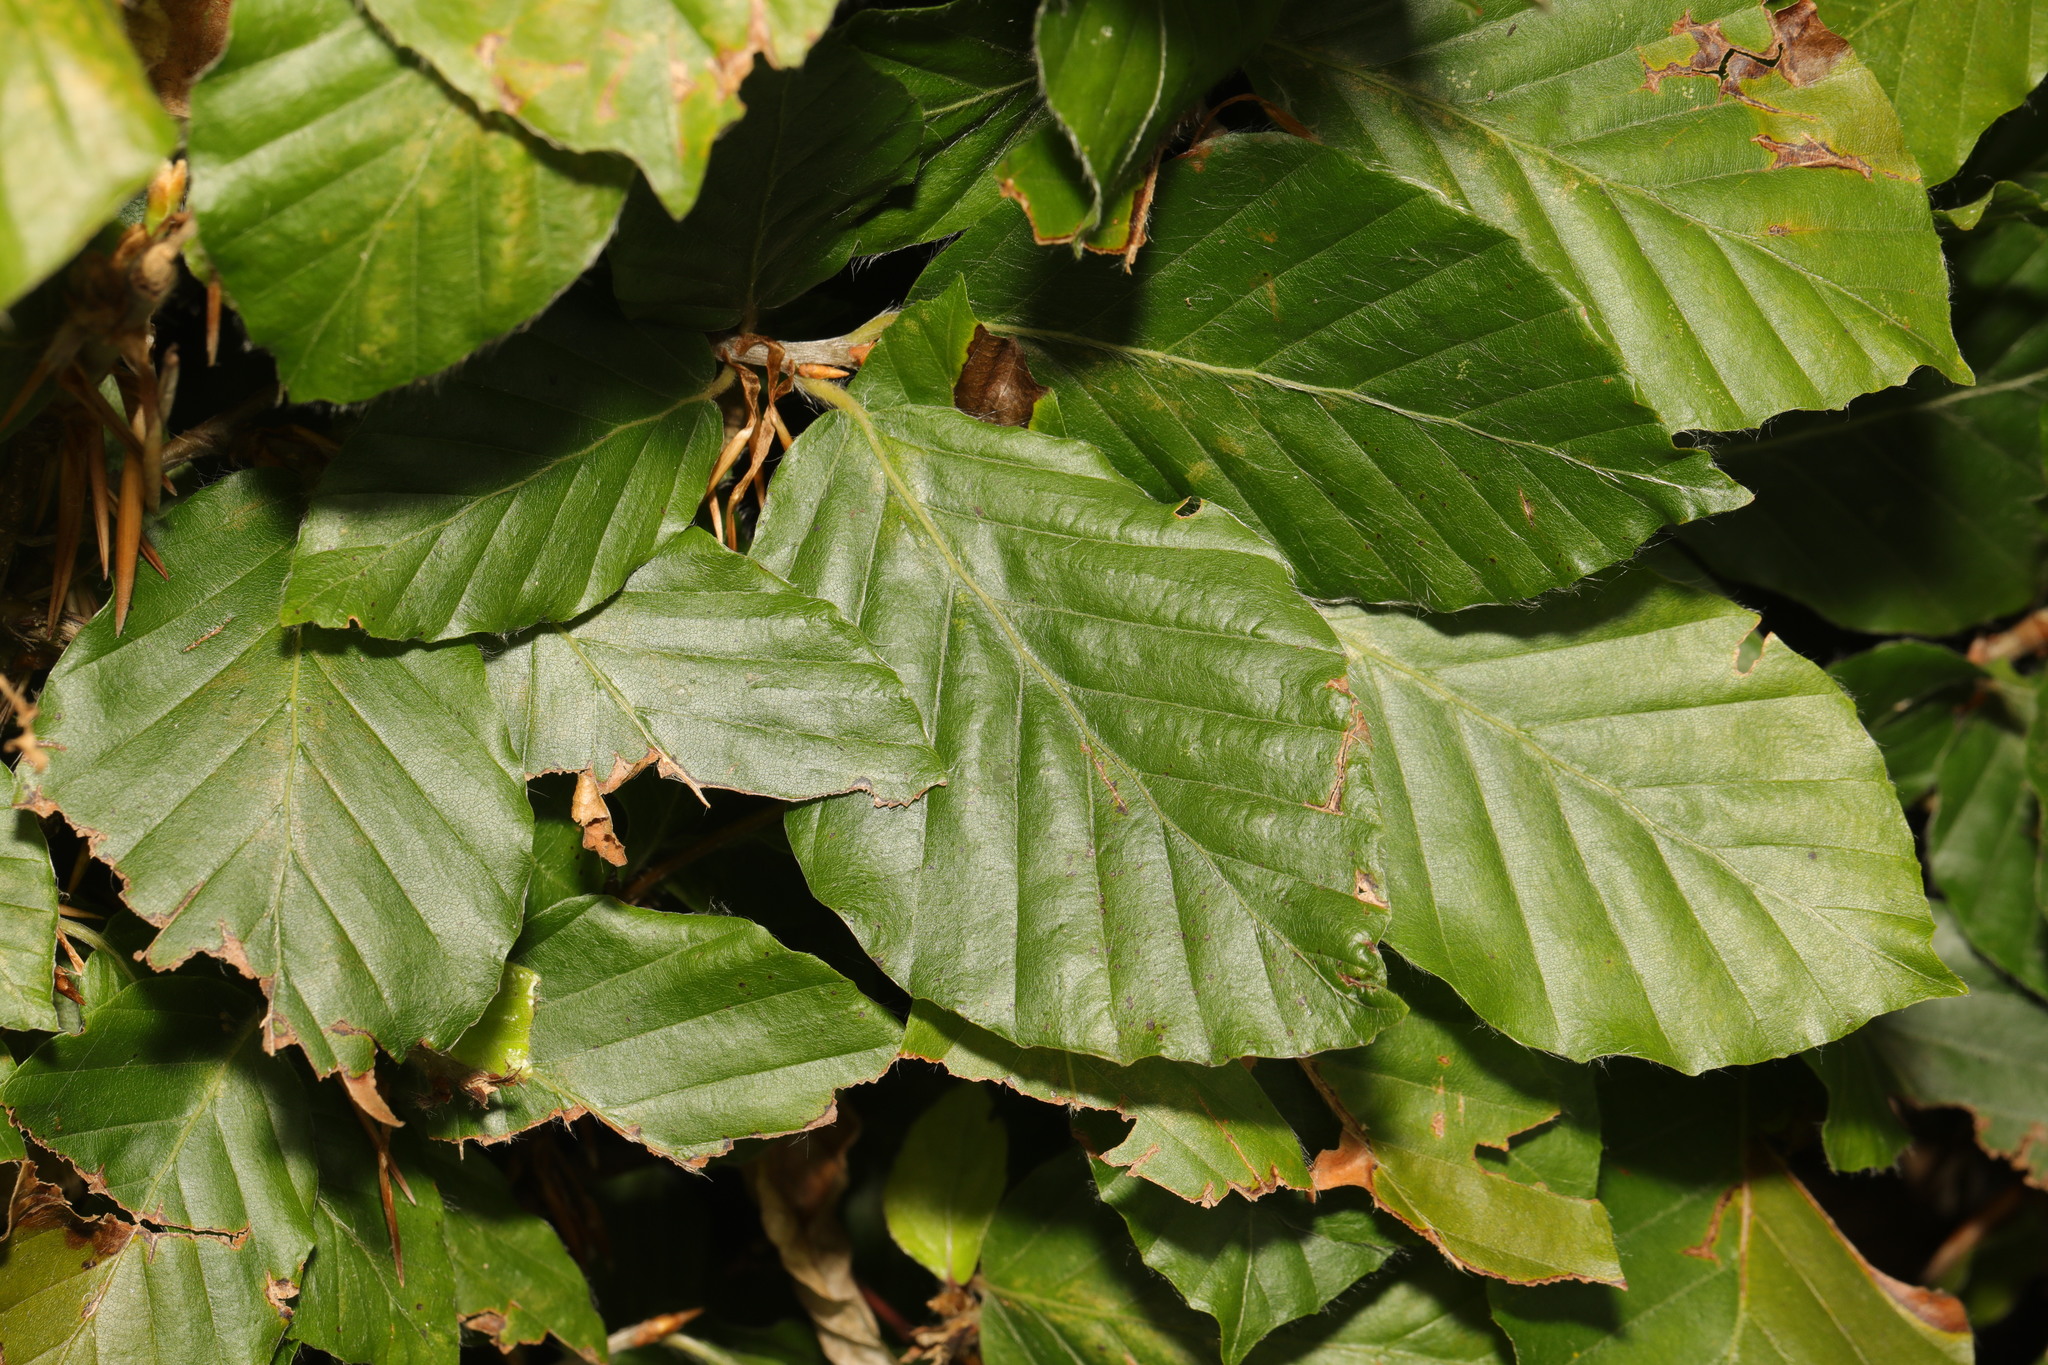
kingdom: Plantae
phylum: Tracheophyta
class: Magnoliopsida
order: Fagales
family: Fagaceae
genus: Fagus
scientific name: Fagus sylvatica
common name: Beech
